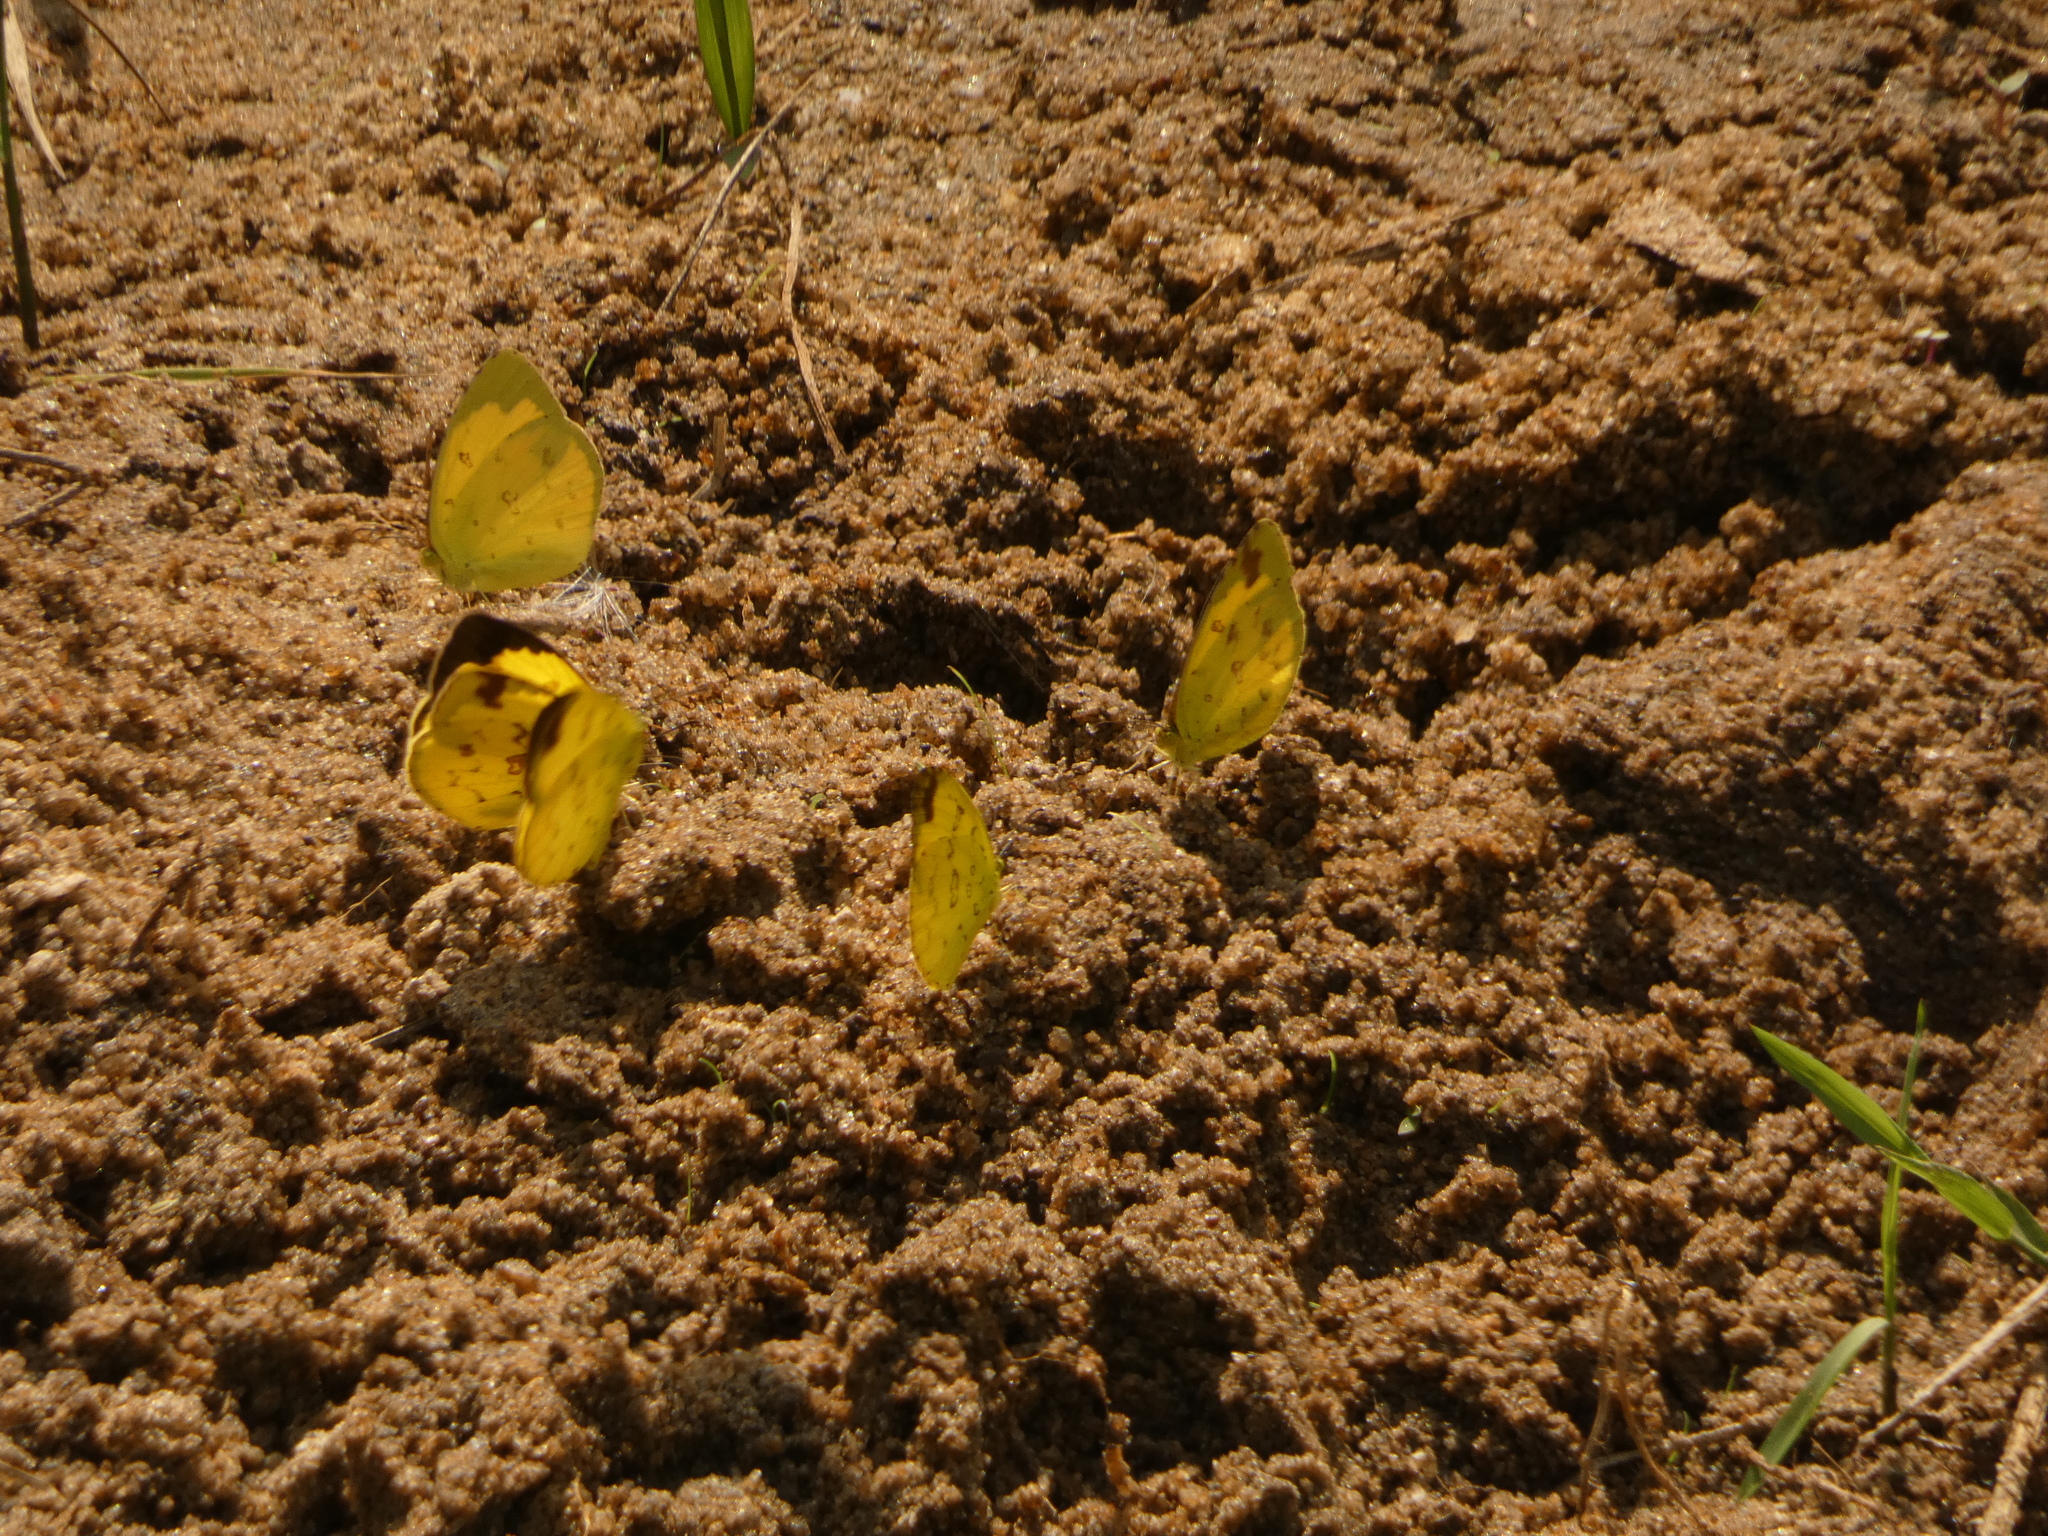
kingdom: Animalia
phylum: Arthropoda
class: Insecta
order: Lepidoptera
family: Pieridae
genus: Eurema
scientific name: Eurema hecabe
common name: Pale grass yellow
